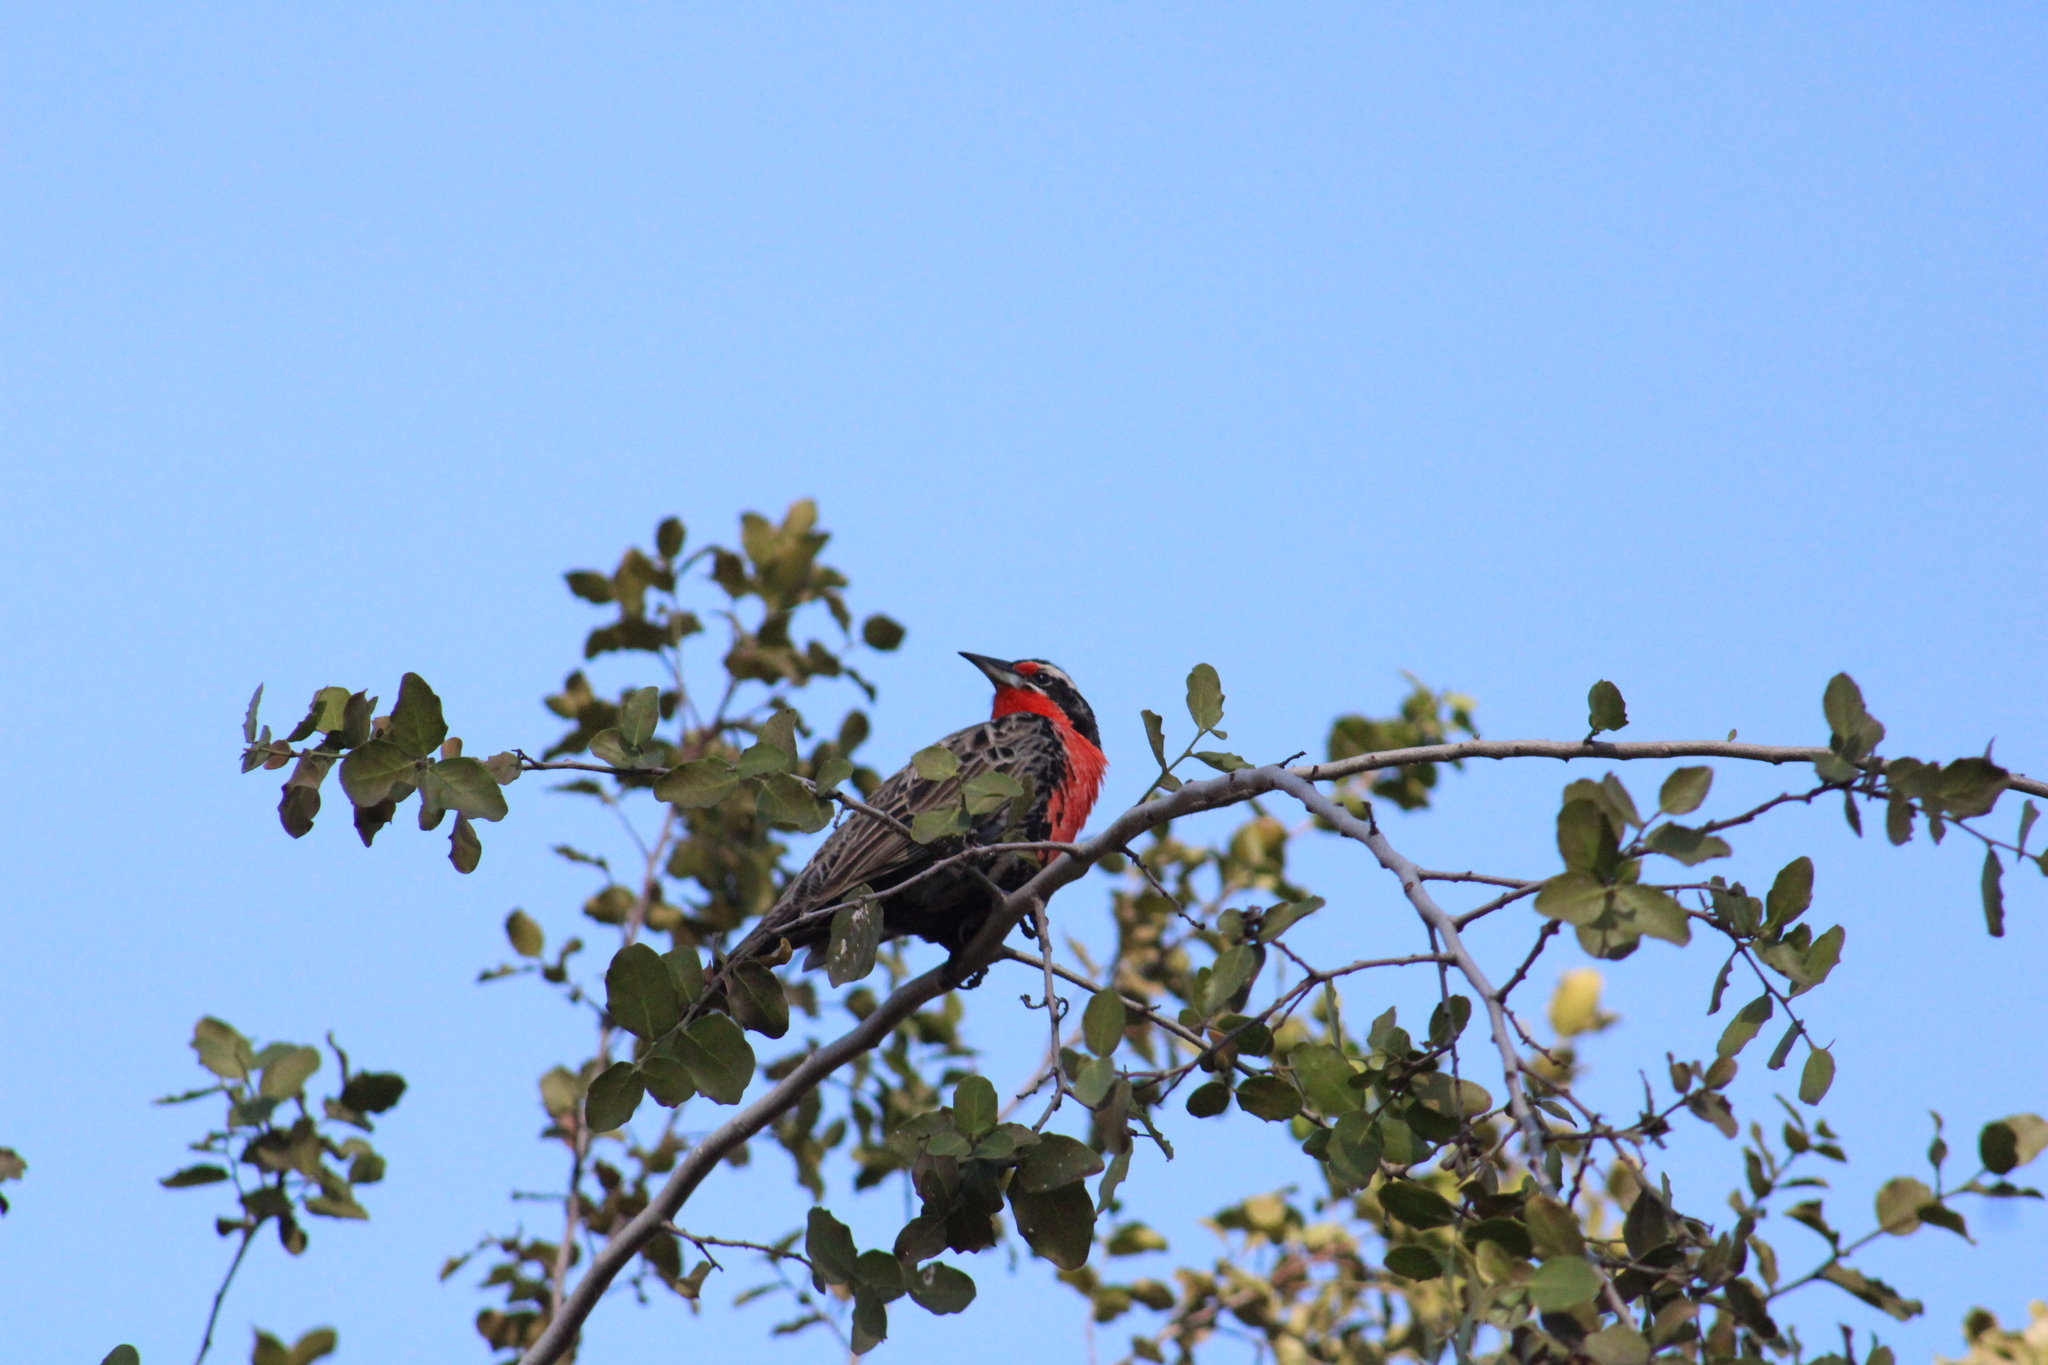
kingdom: Animalia
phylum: Chordata
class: Aves
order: Passeriformes
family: Icteridae
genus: Sturnella
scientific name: Sturnella loyca
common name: Long-tailed meadowlark
